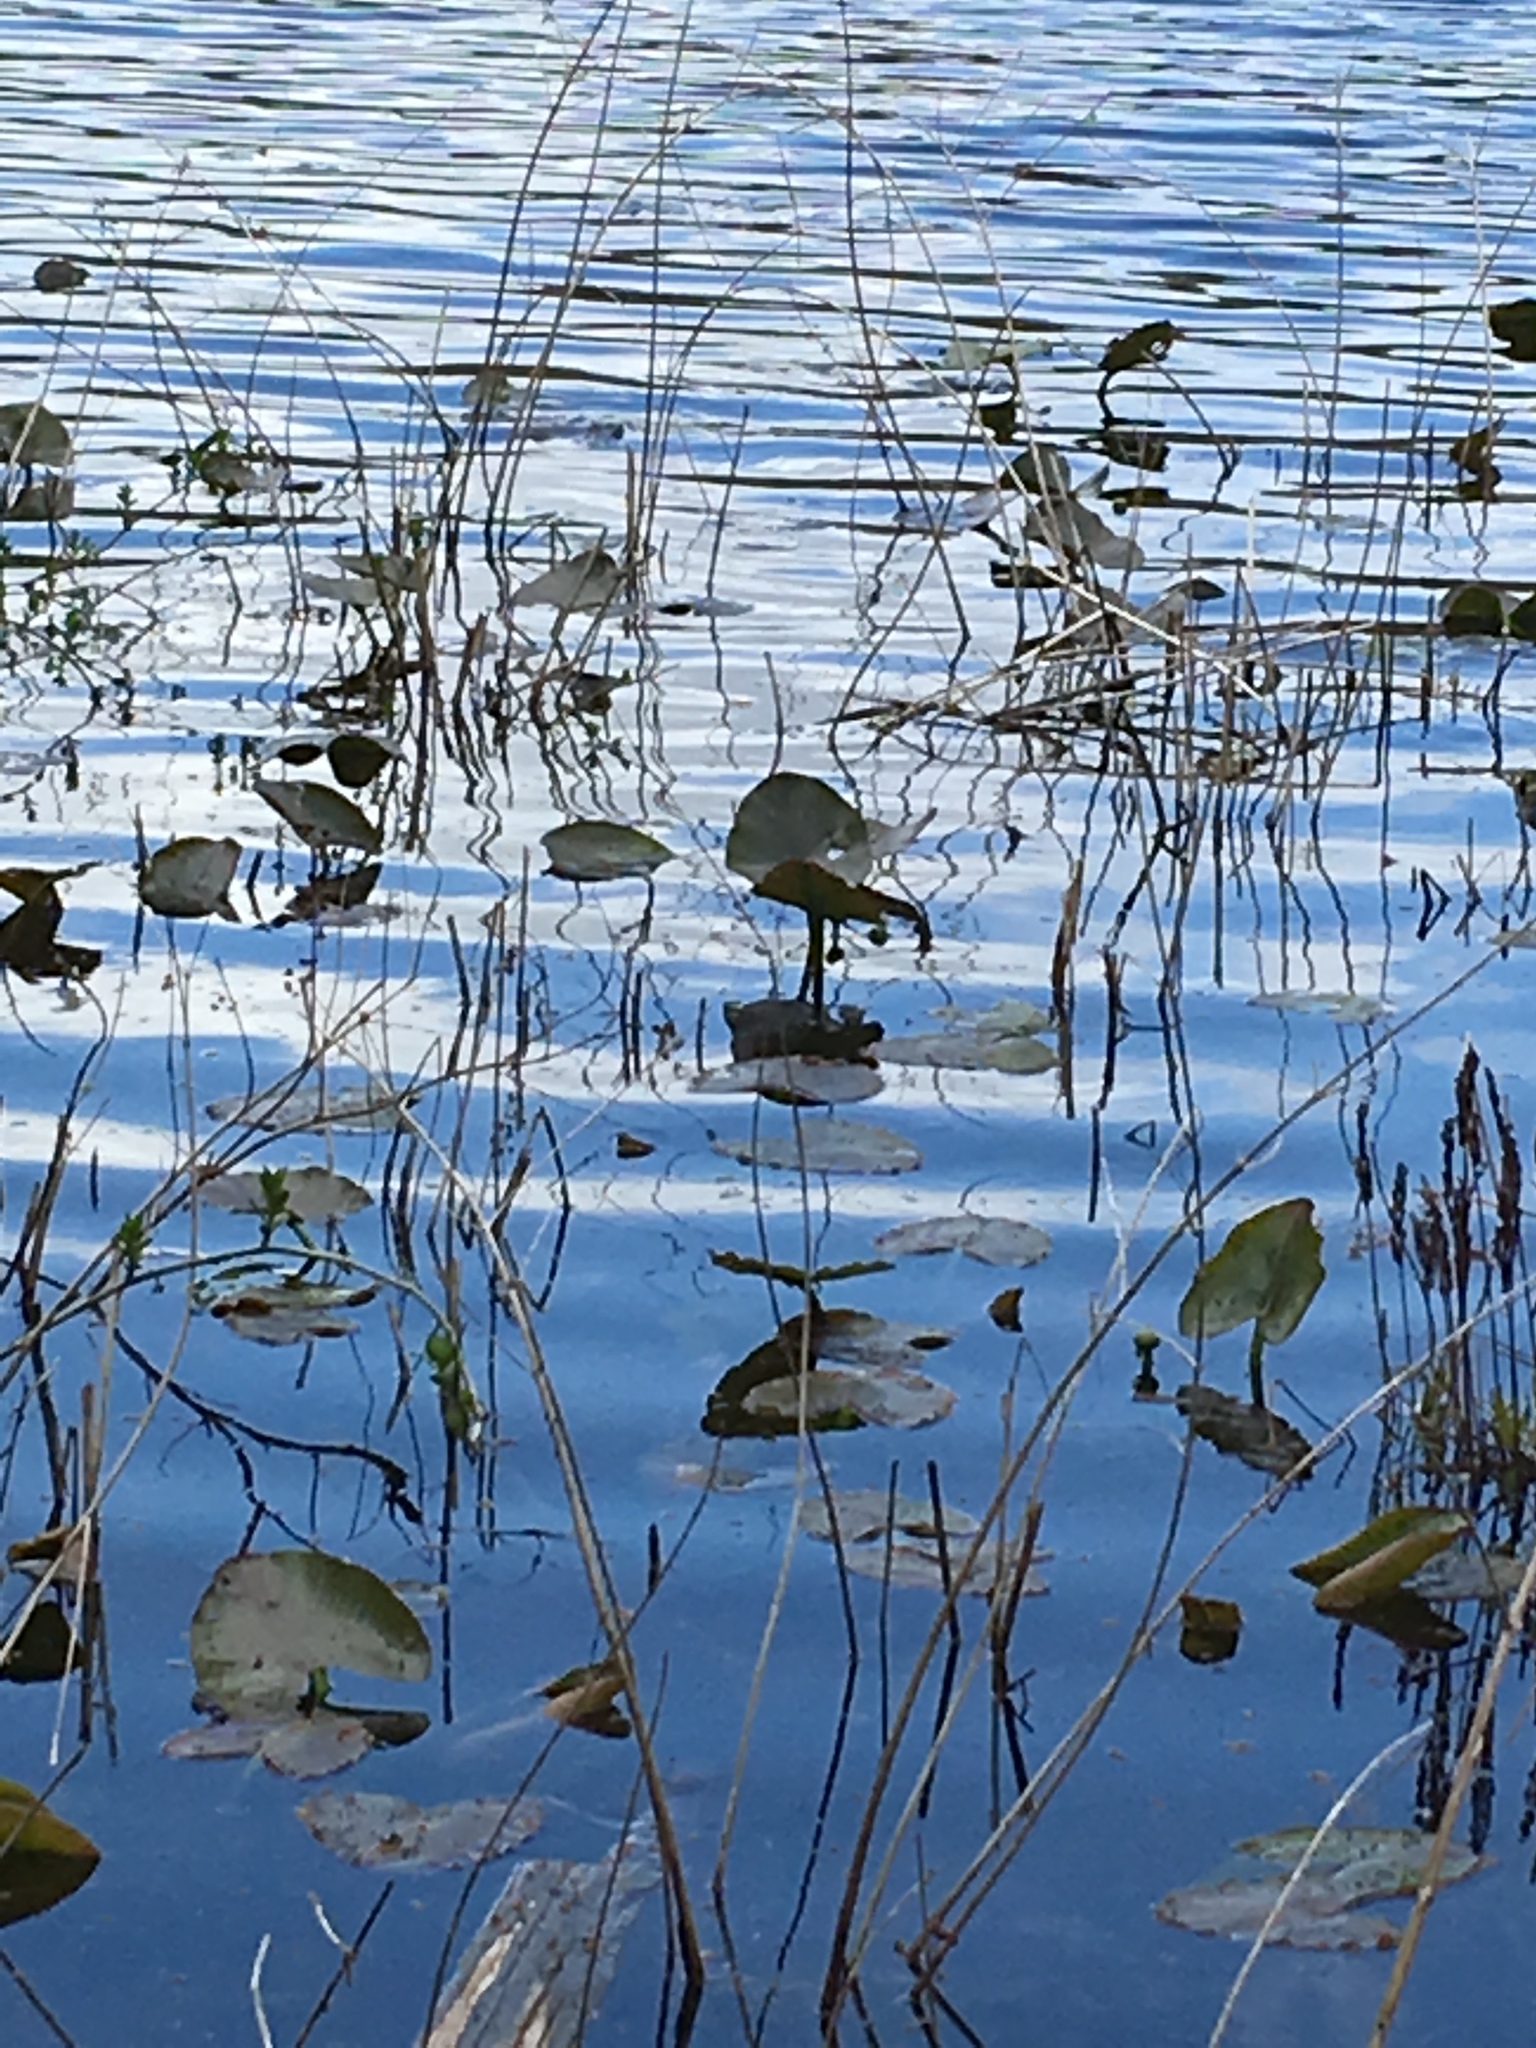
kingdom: Plantae
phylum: Tracheophyta
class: Magnoliopsida
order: Nymphaeales
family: Nymphaeaceae
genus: Nuphar
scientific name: Nuphar advena
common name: Spatter-dock
